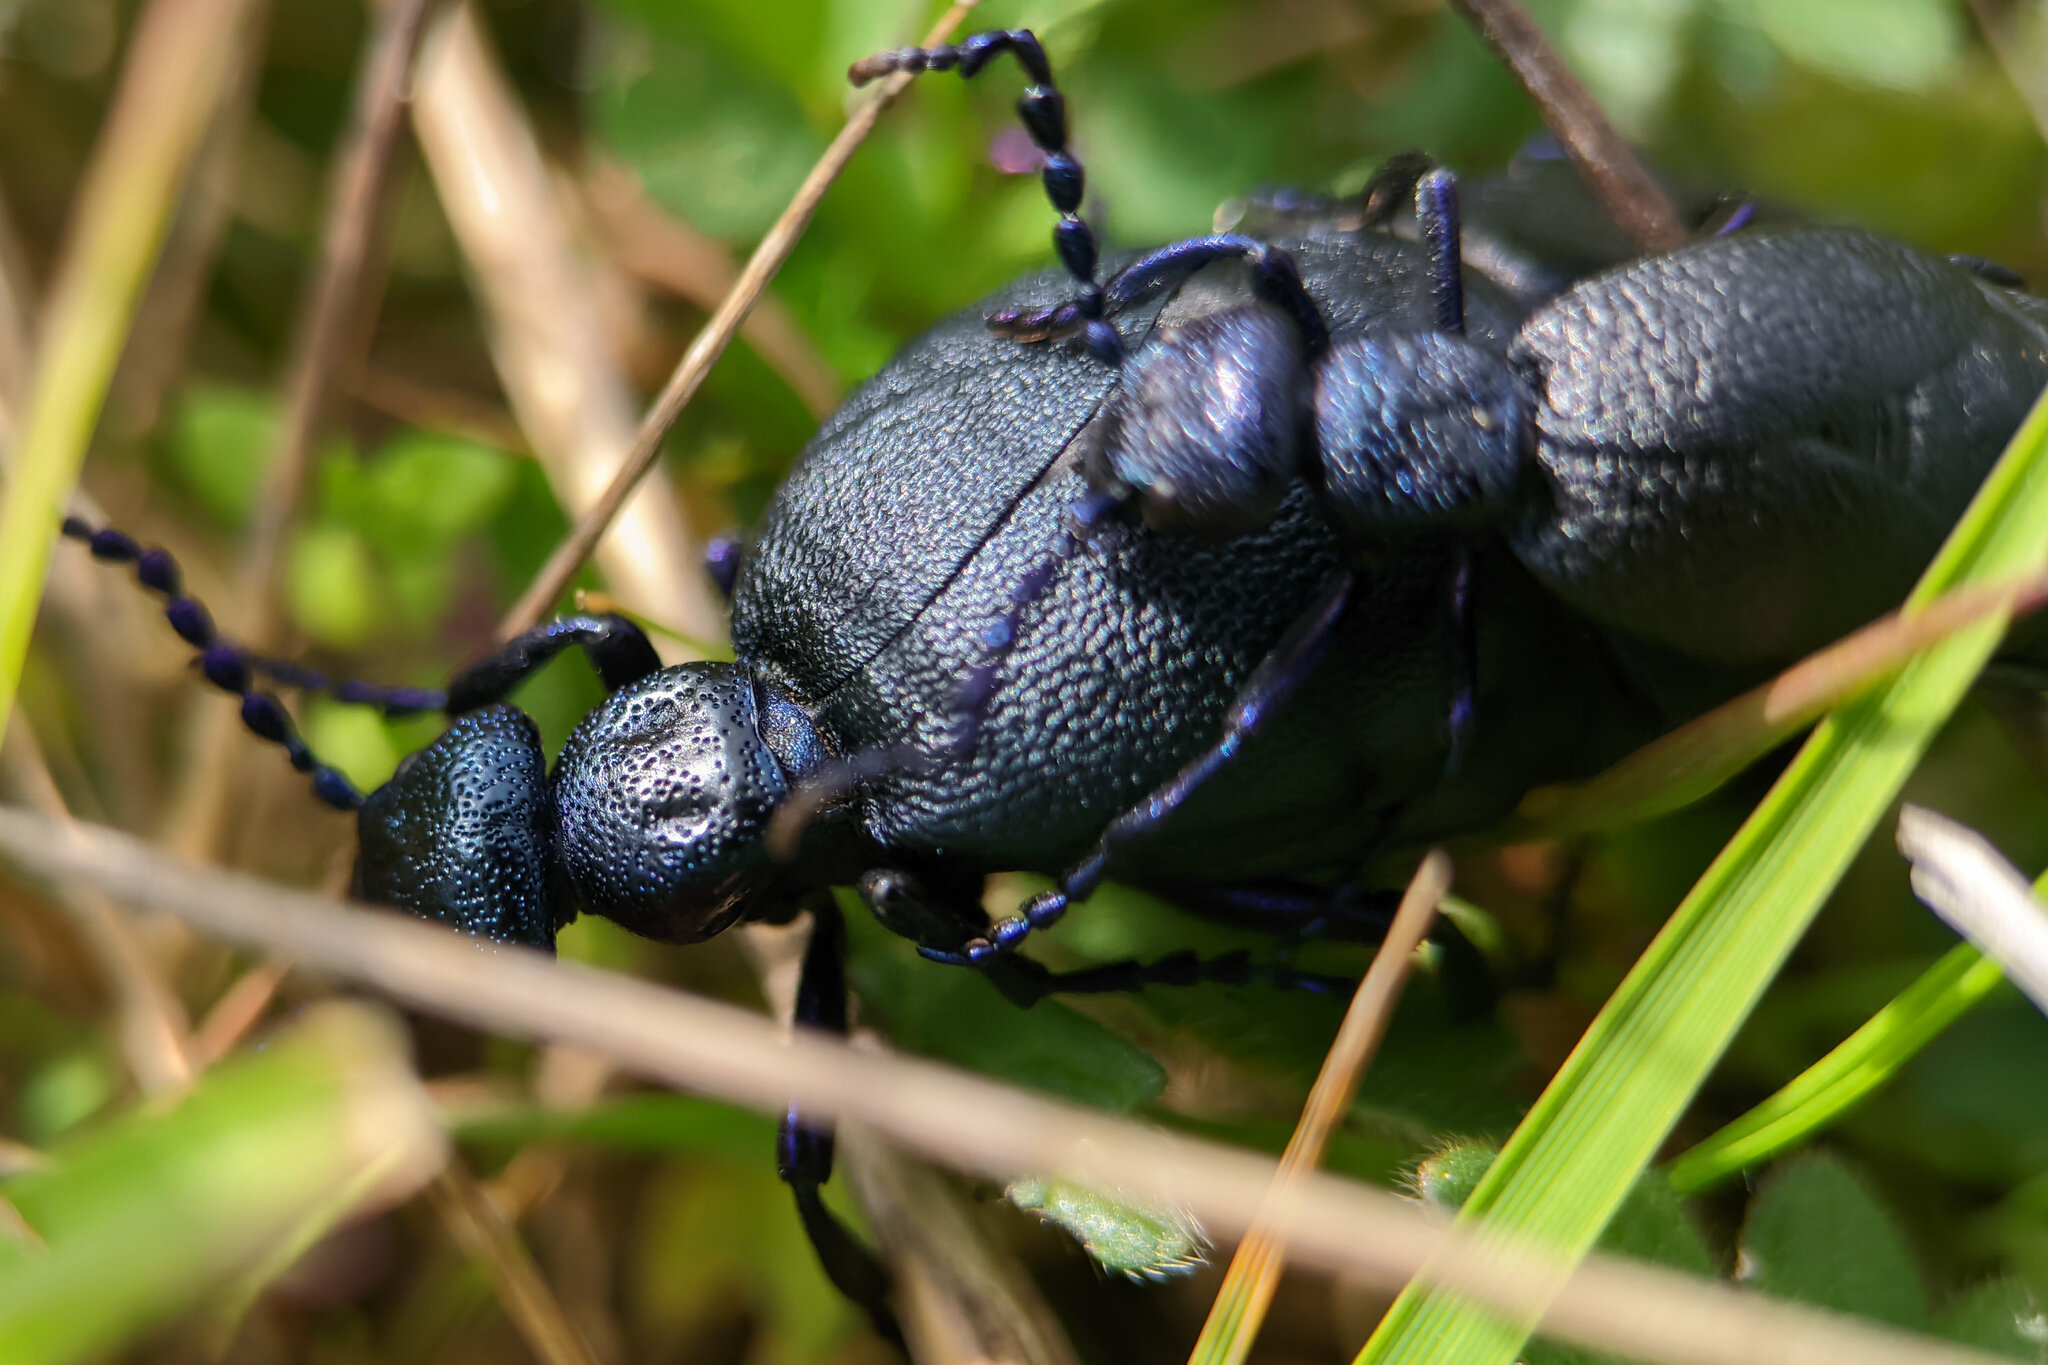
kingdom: Animalia
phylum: Arthropoda
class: Insecta
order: Coleoptera
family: Meloidae
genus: Meloe
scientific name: Meloe proscarabaeus
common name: Black oil-beetle
